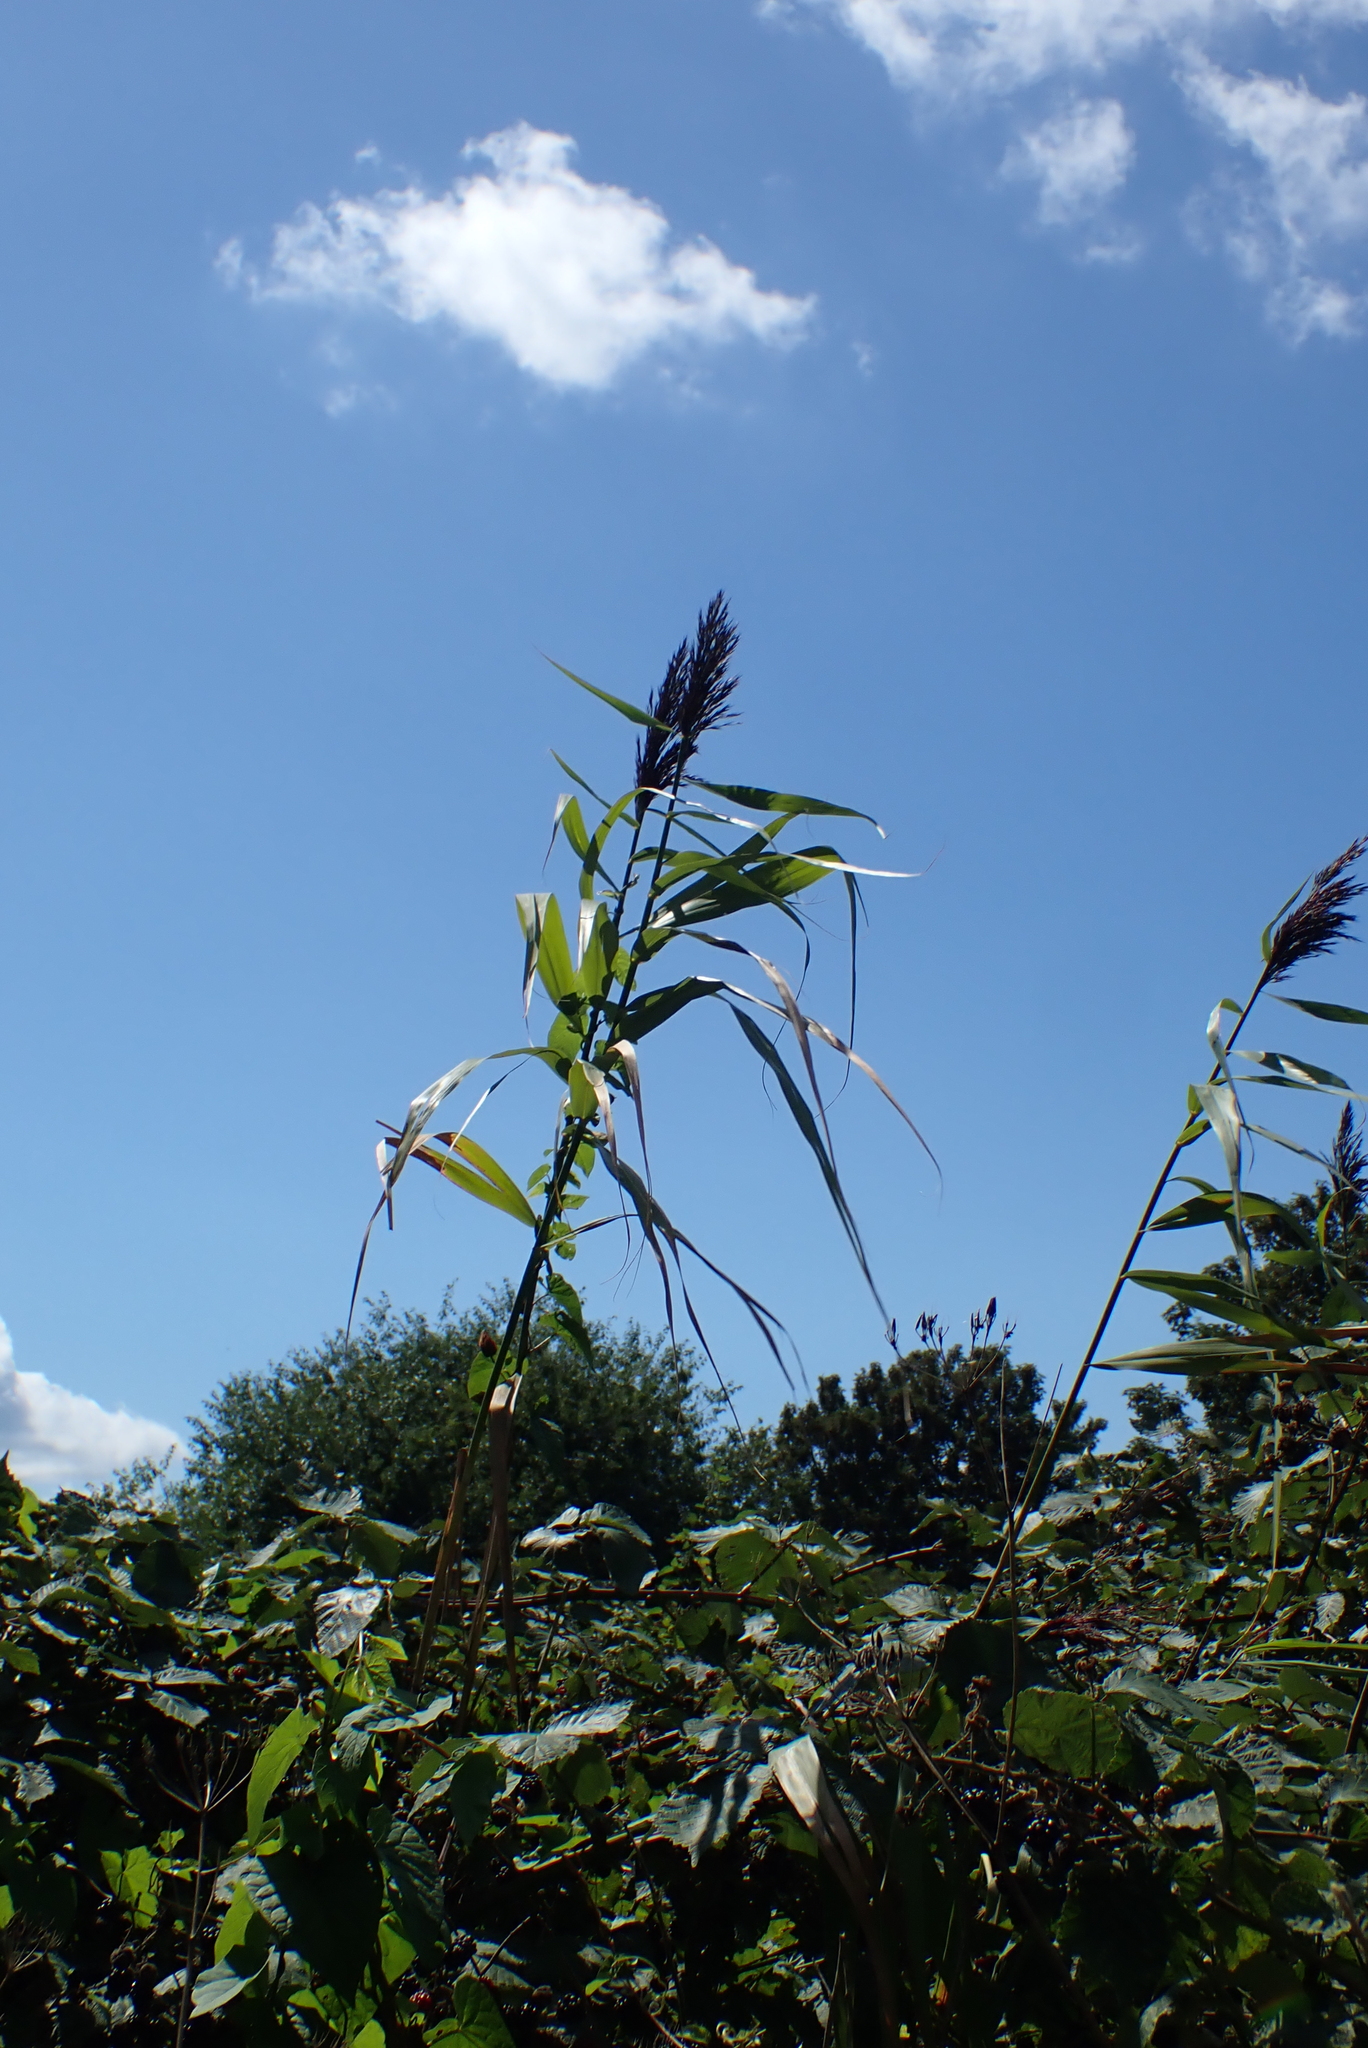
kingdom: Plantae
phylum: Tracheophyta
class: Liliopsida
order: Poales
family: Poaceae
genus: Phragmites
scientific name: Phragmites australis
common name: Common reed
